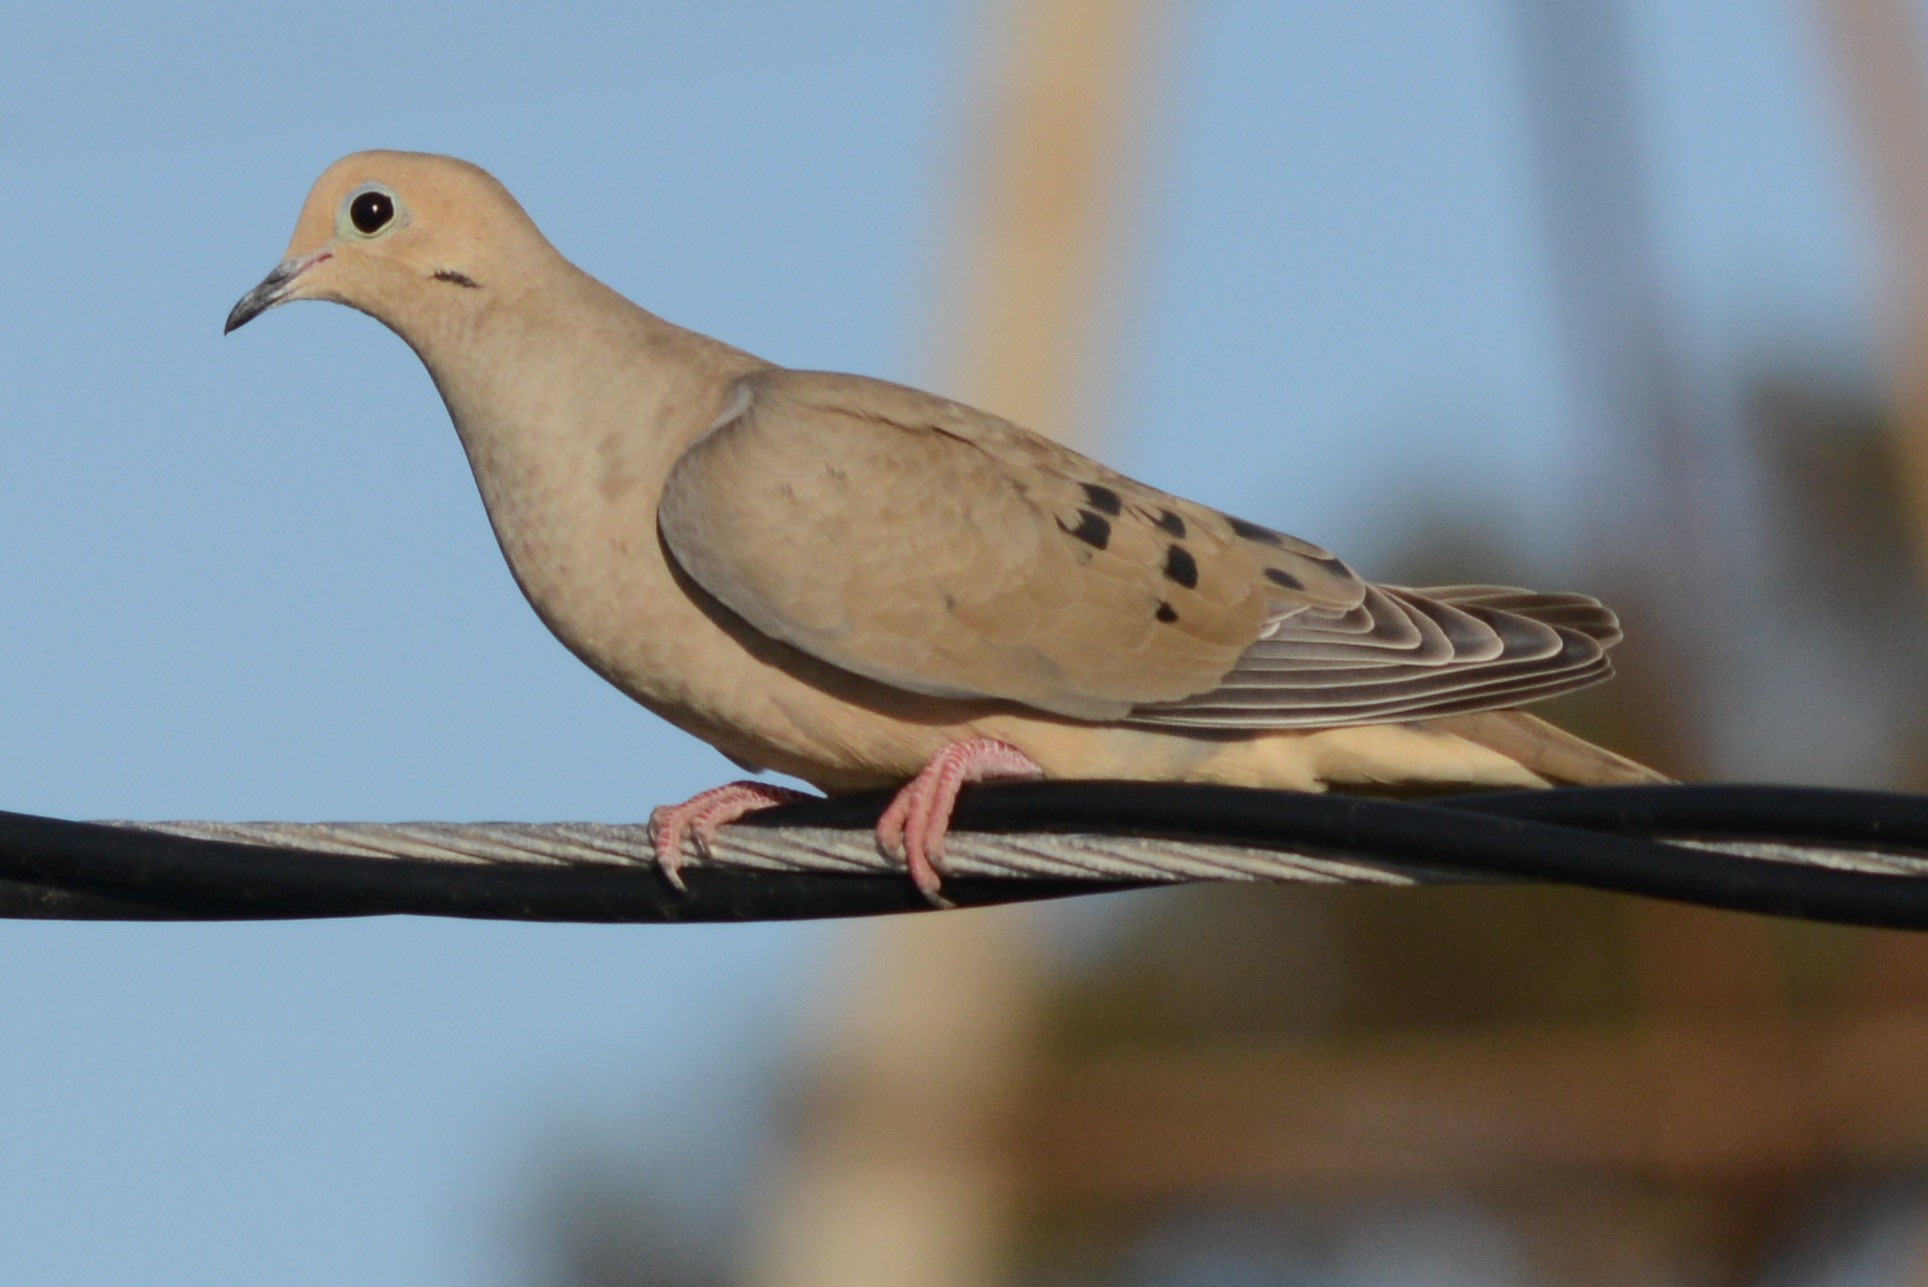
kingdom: Animalia
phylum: Chordata
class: Aves
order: Columbiformes
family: Columbidae
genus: Zenaida
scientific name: Zenaida macroura
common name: Mourning dove
